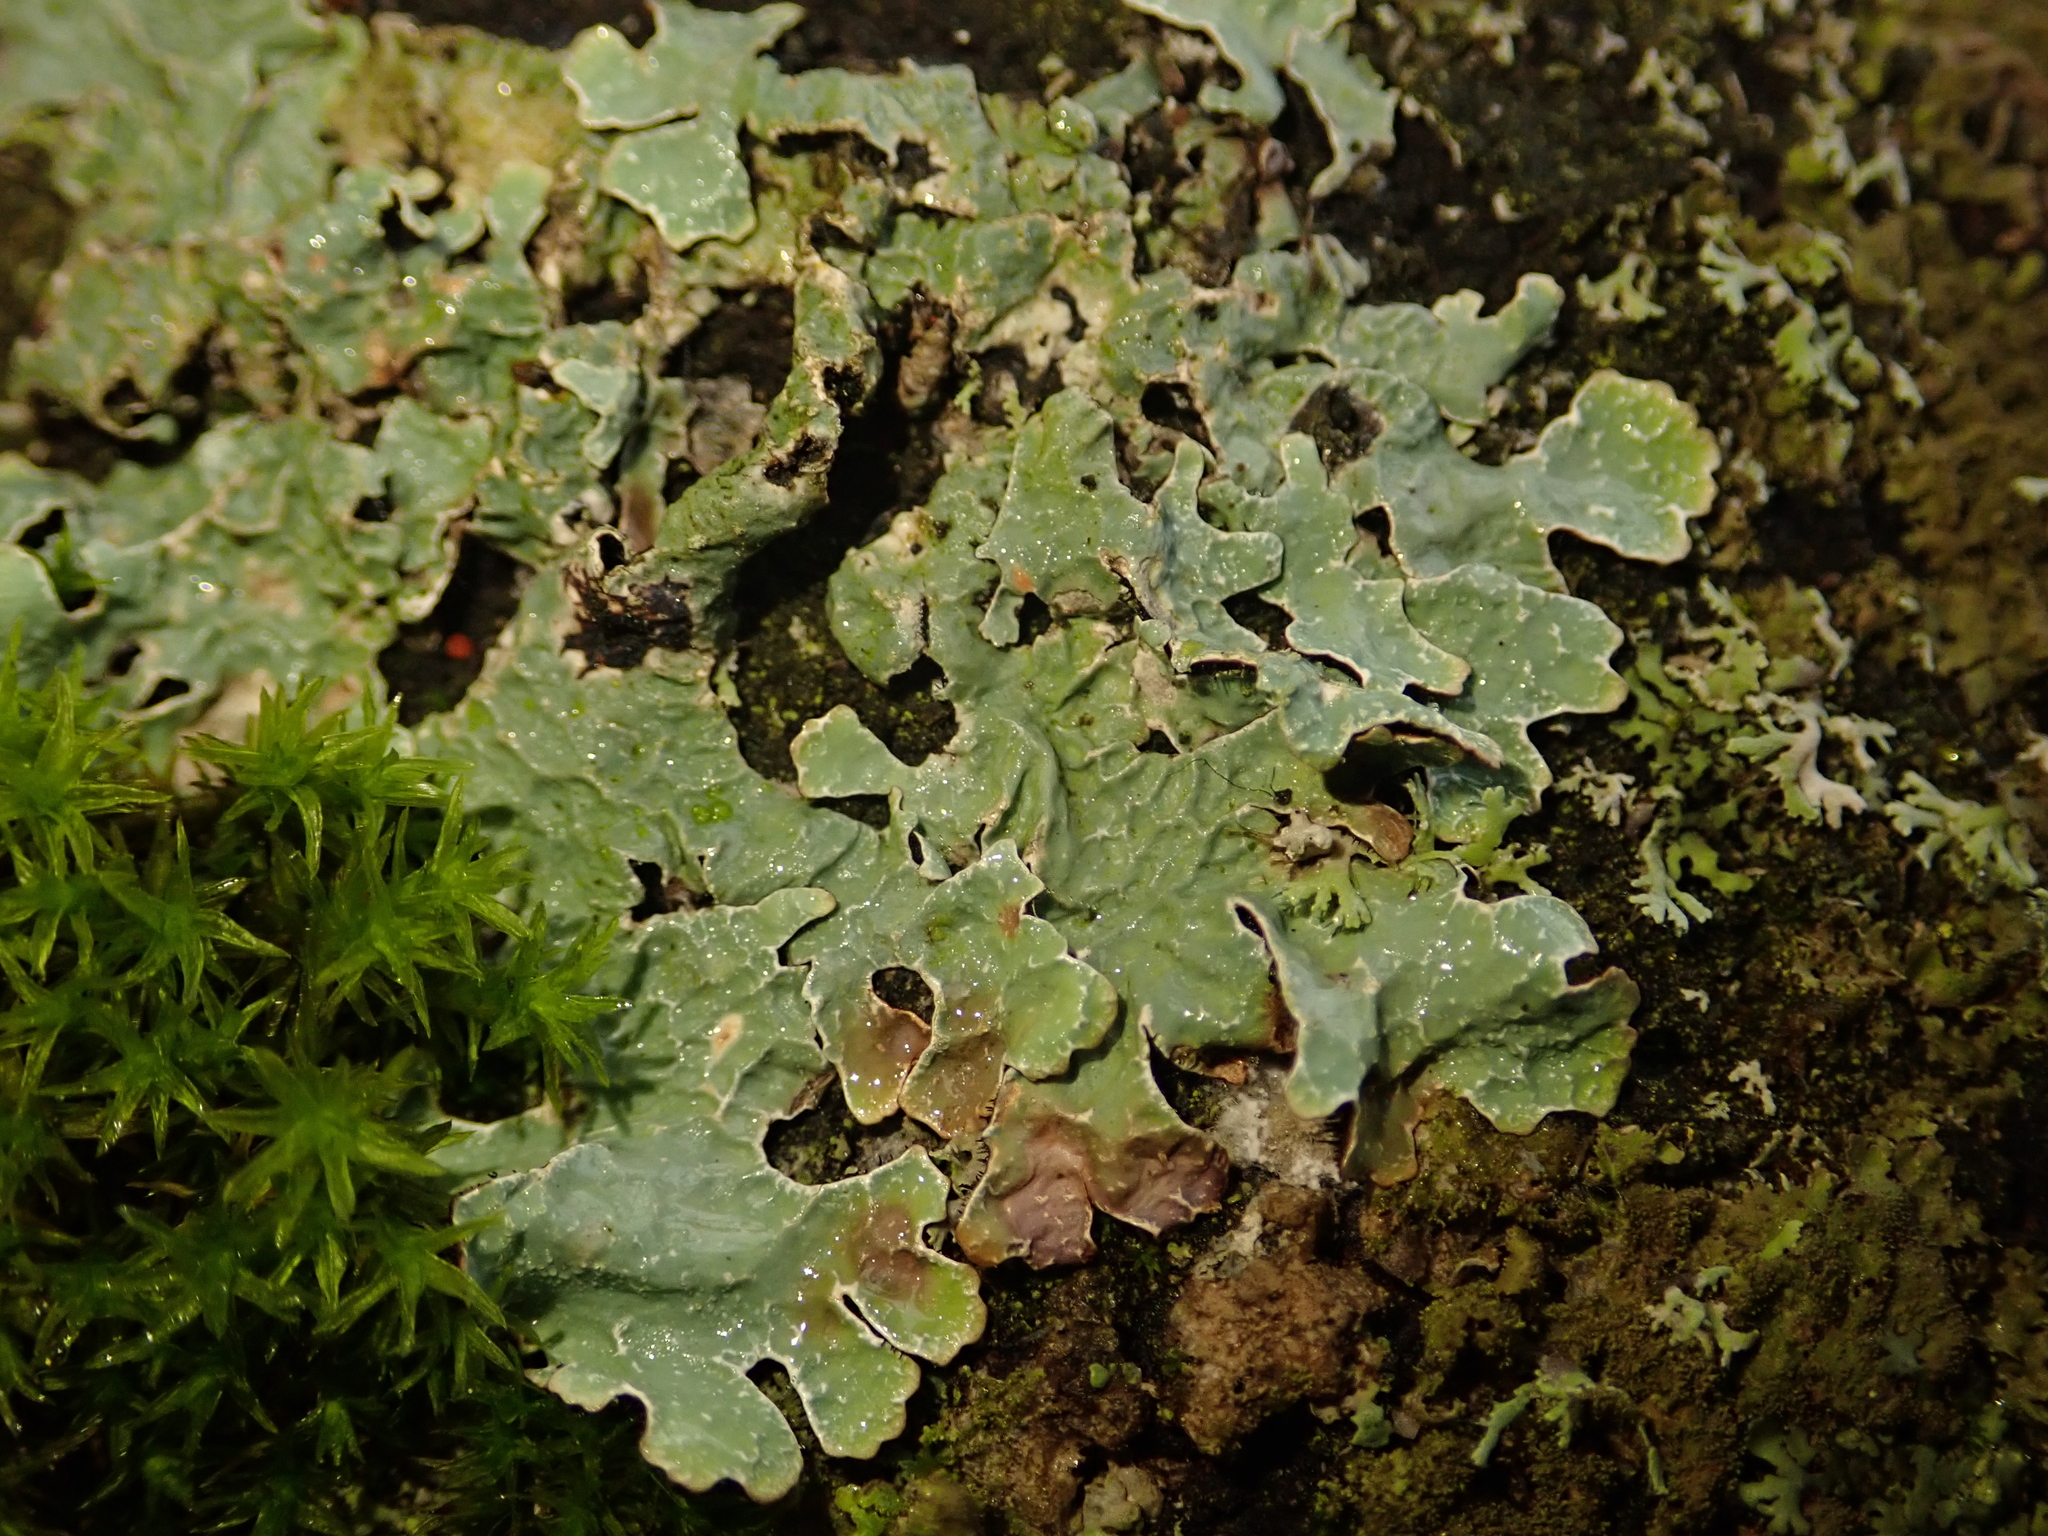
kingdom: Fungi
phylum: Ascomycota
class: Lecanoromycetes
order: Lecanorales
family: Parmeliaceae
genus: Parmelia
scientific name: Parmelia sulcata
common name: Netted shield lichen
